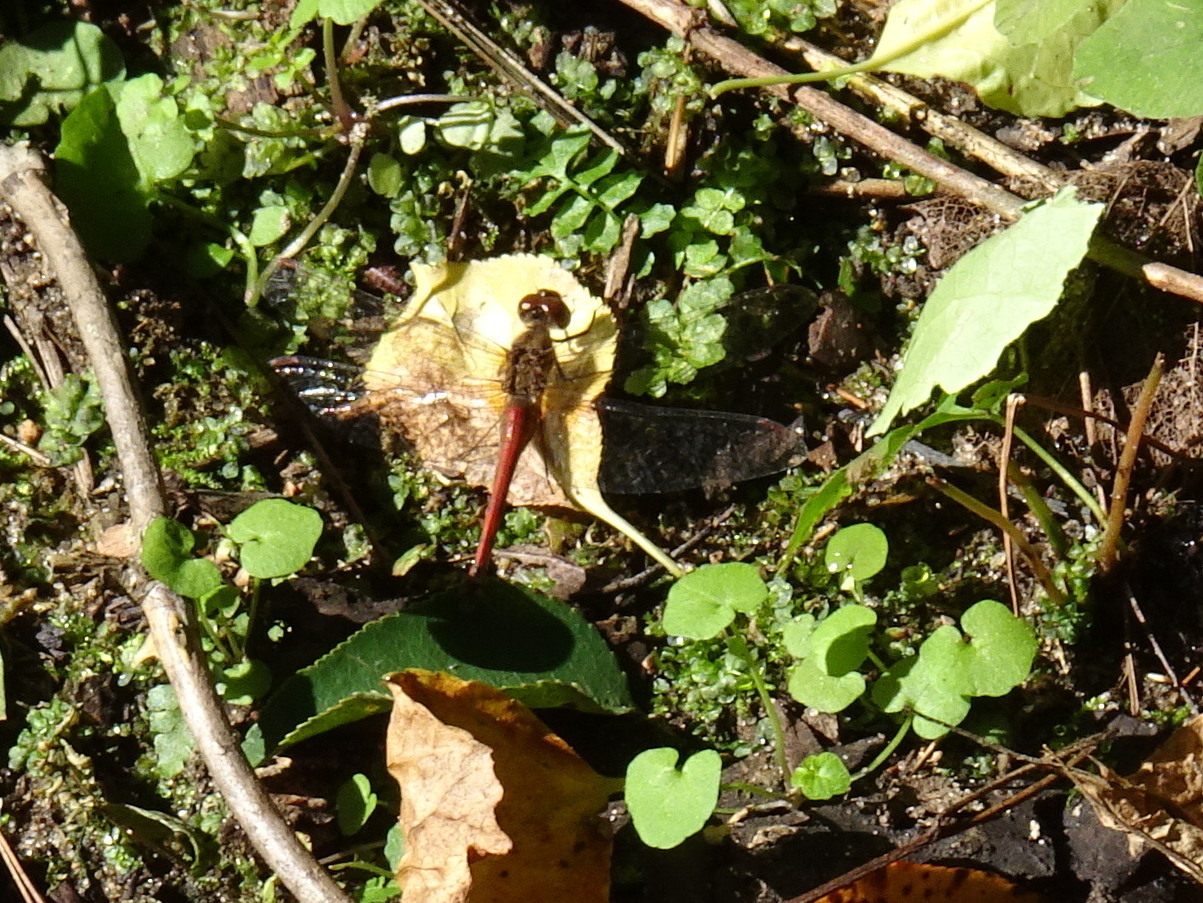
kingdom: Animalia
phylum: Arthropoda
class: Insecta
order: Odonata
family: Libellulidae
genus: Sympetrum
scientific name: Sympetrum vicinum
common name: Autumn meadowhawk
